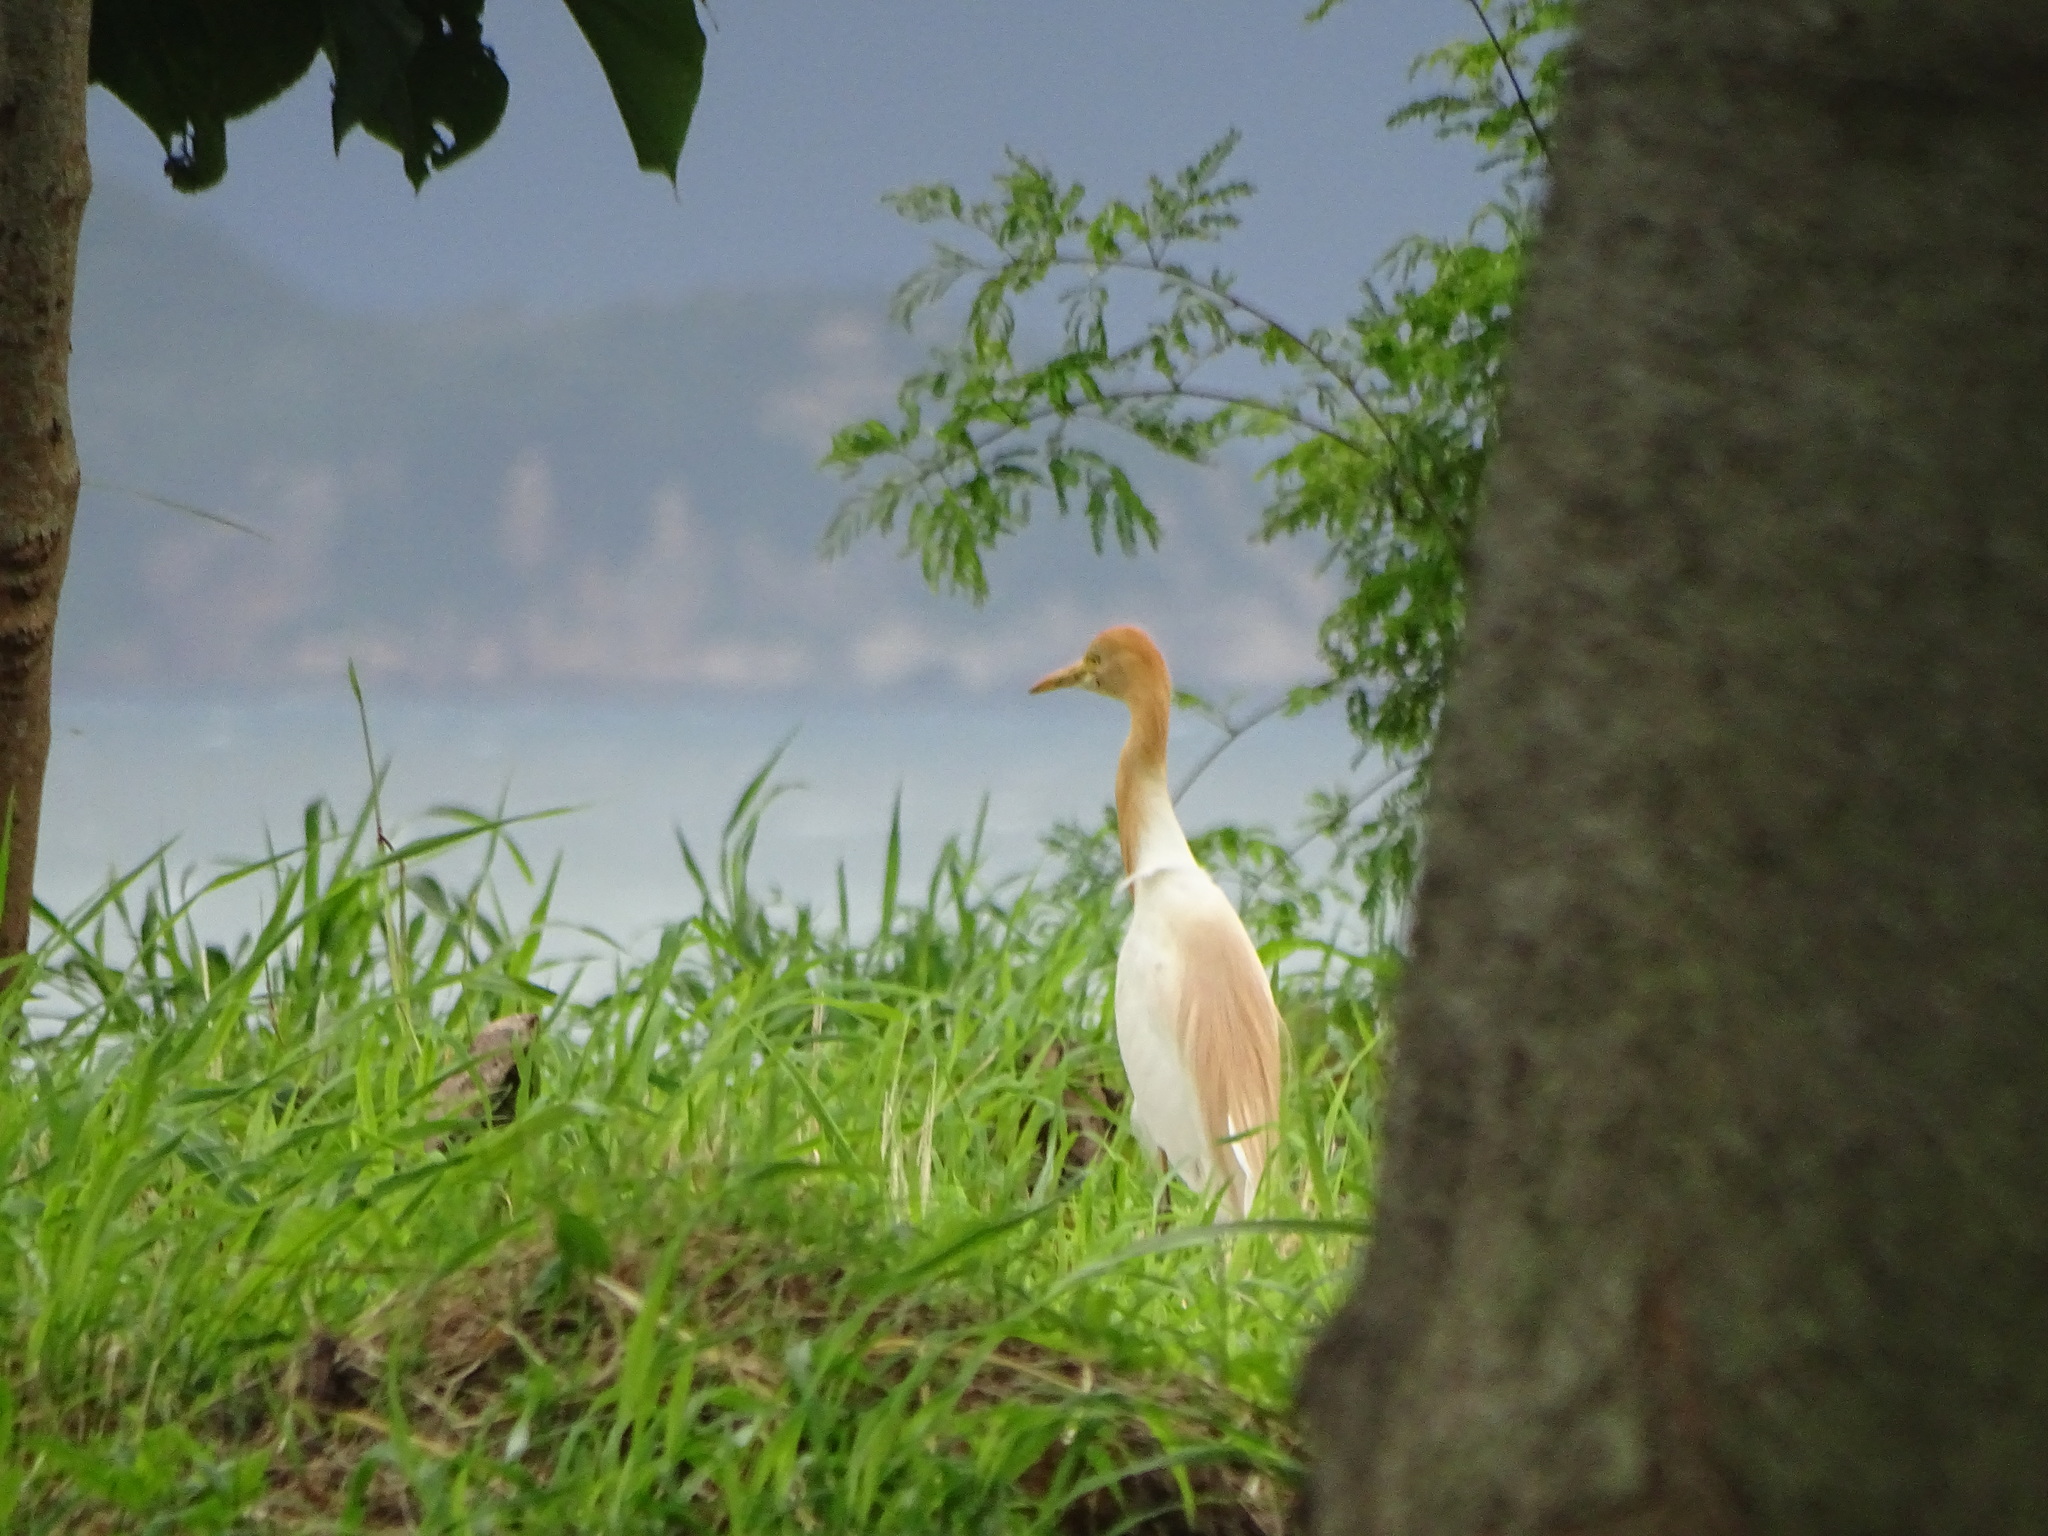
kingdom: Animalia
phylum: Chordata
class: Aves
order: Pelecaniformes
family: Ardeidae
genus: Bubulcus
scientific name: Bubulcus coromandus
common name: Eastern cattle egret
